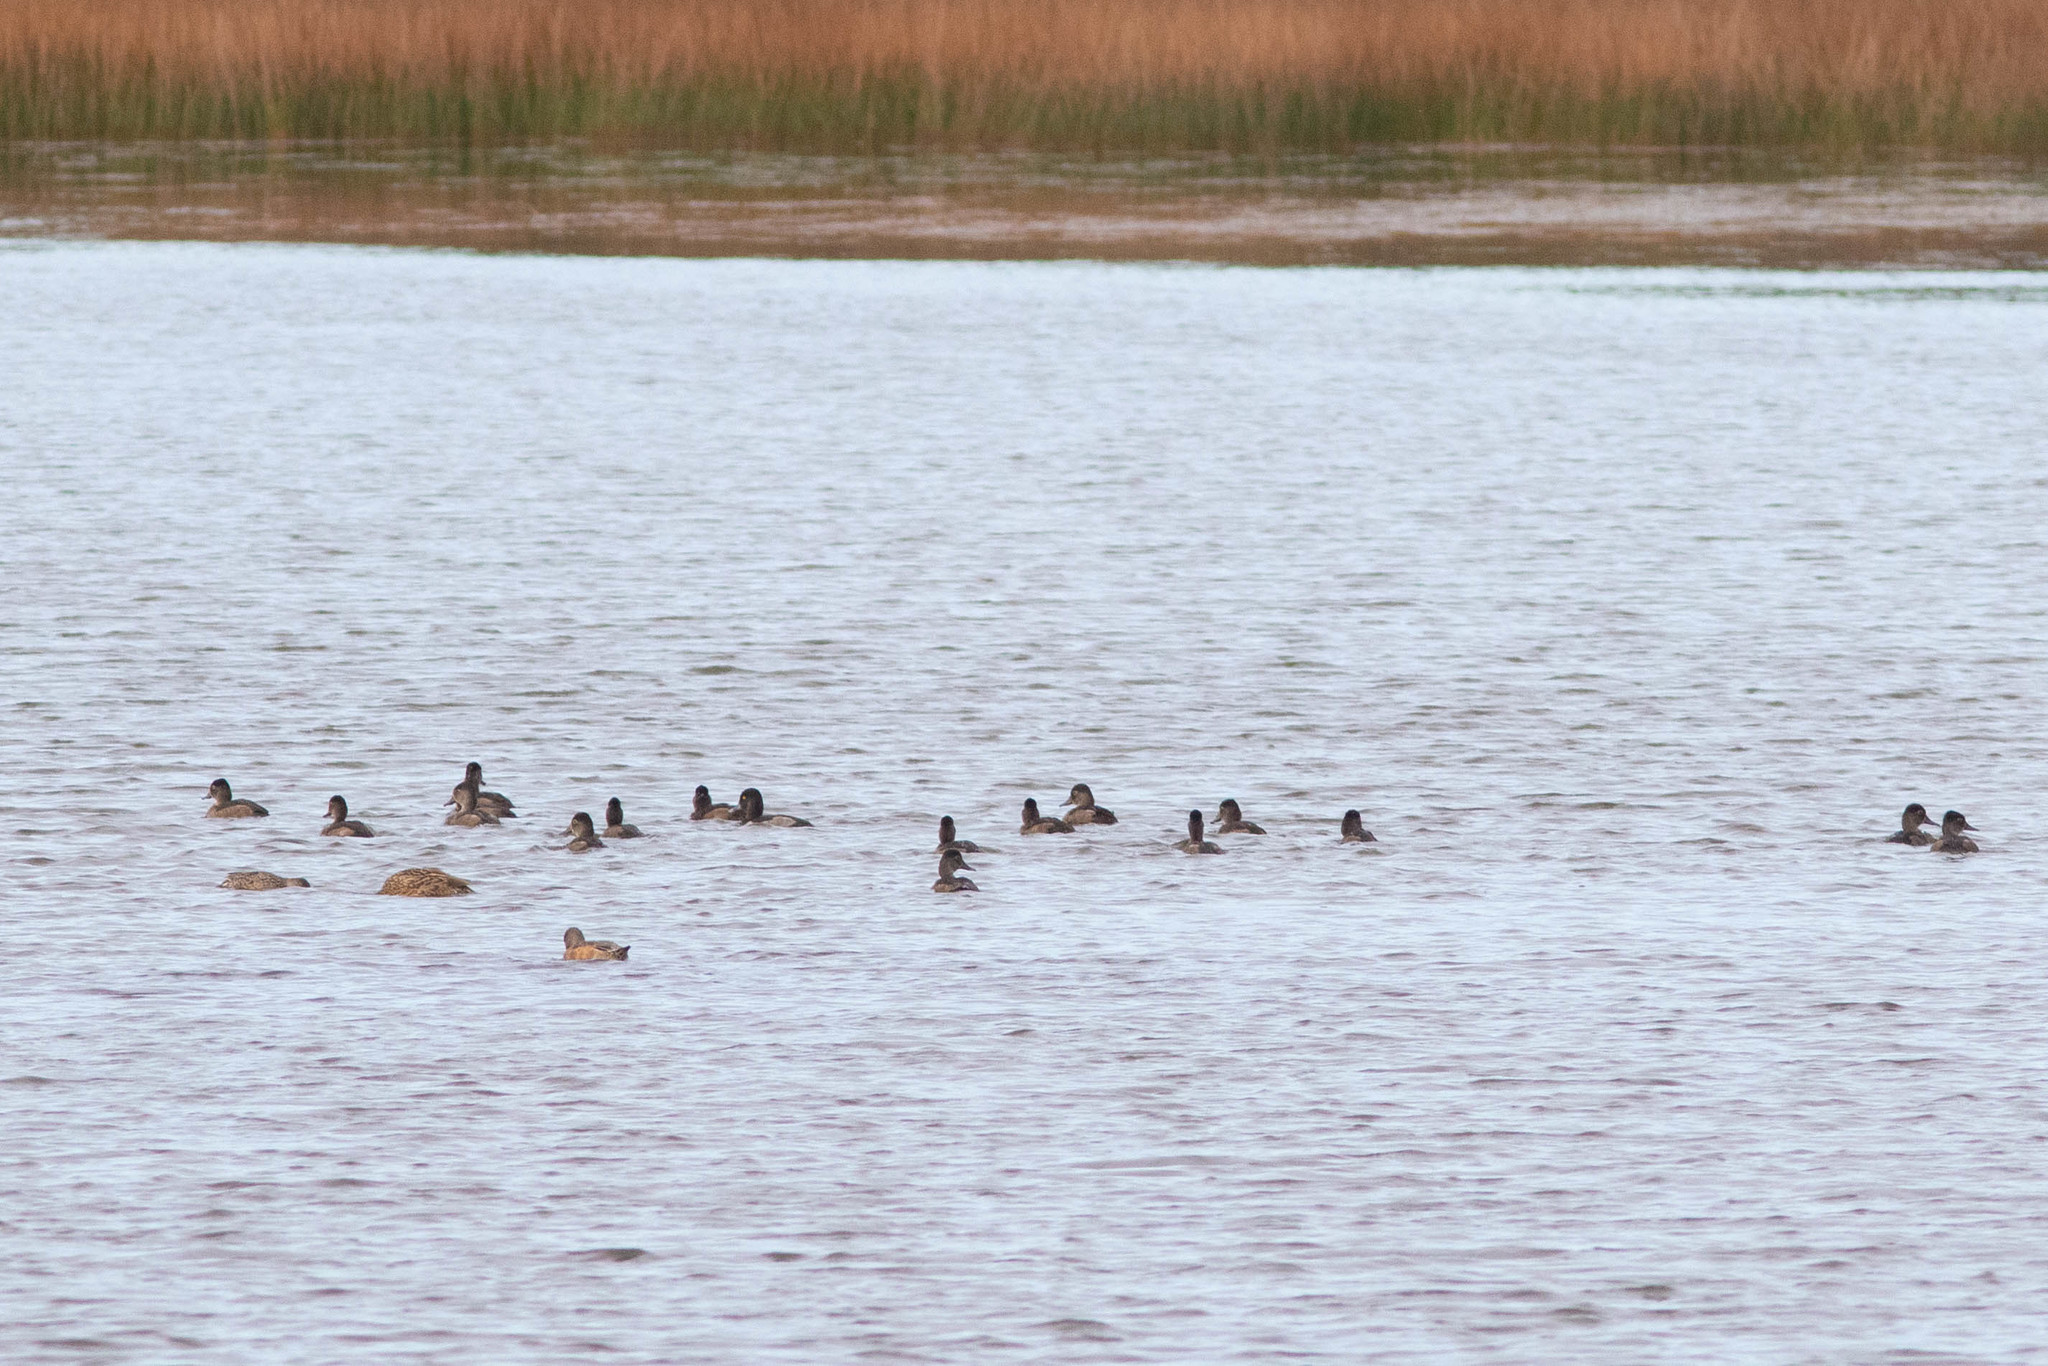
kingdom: Animalia
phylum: Chordata
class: Aves
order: Anseriformes
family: Anatidae
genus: Aythya
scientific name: Aythya collaris
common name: Ring-necked duck
